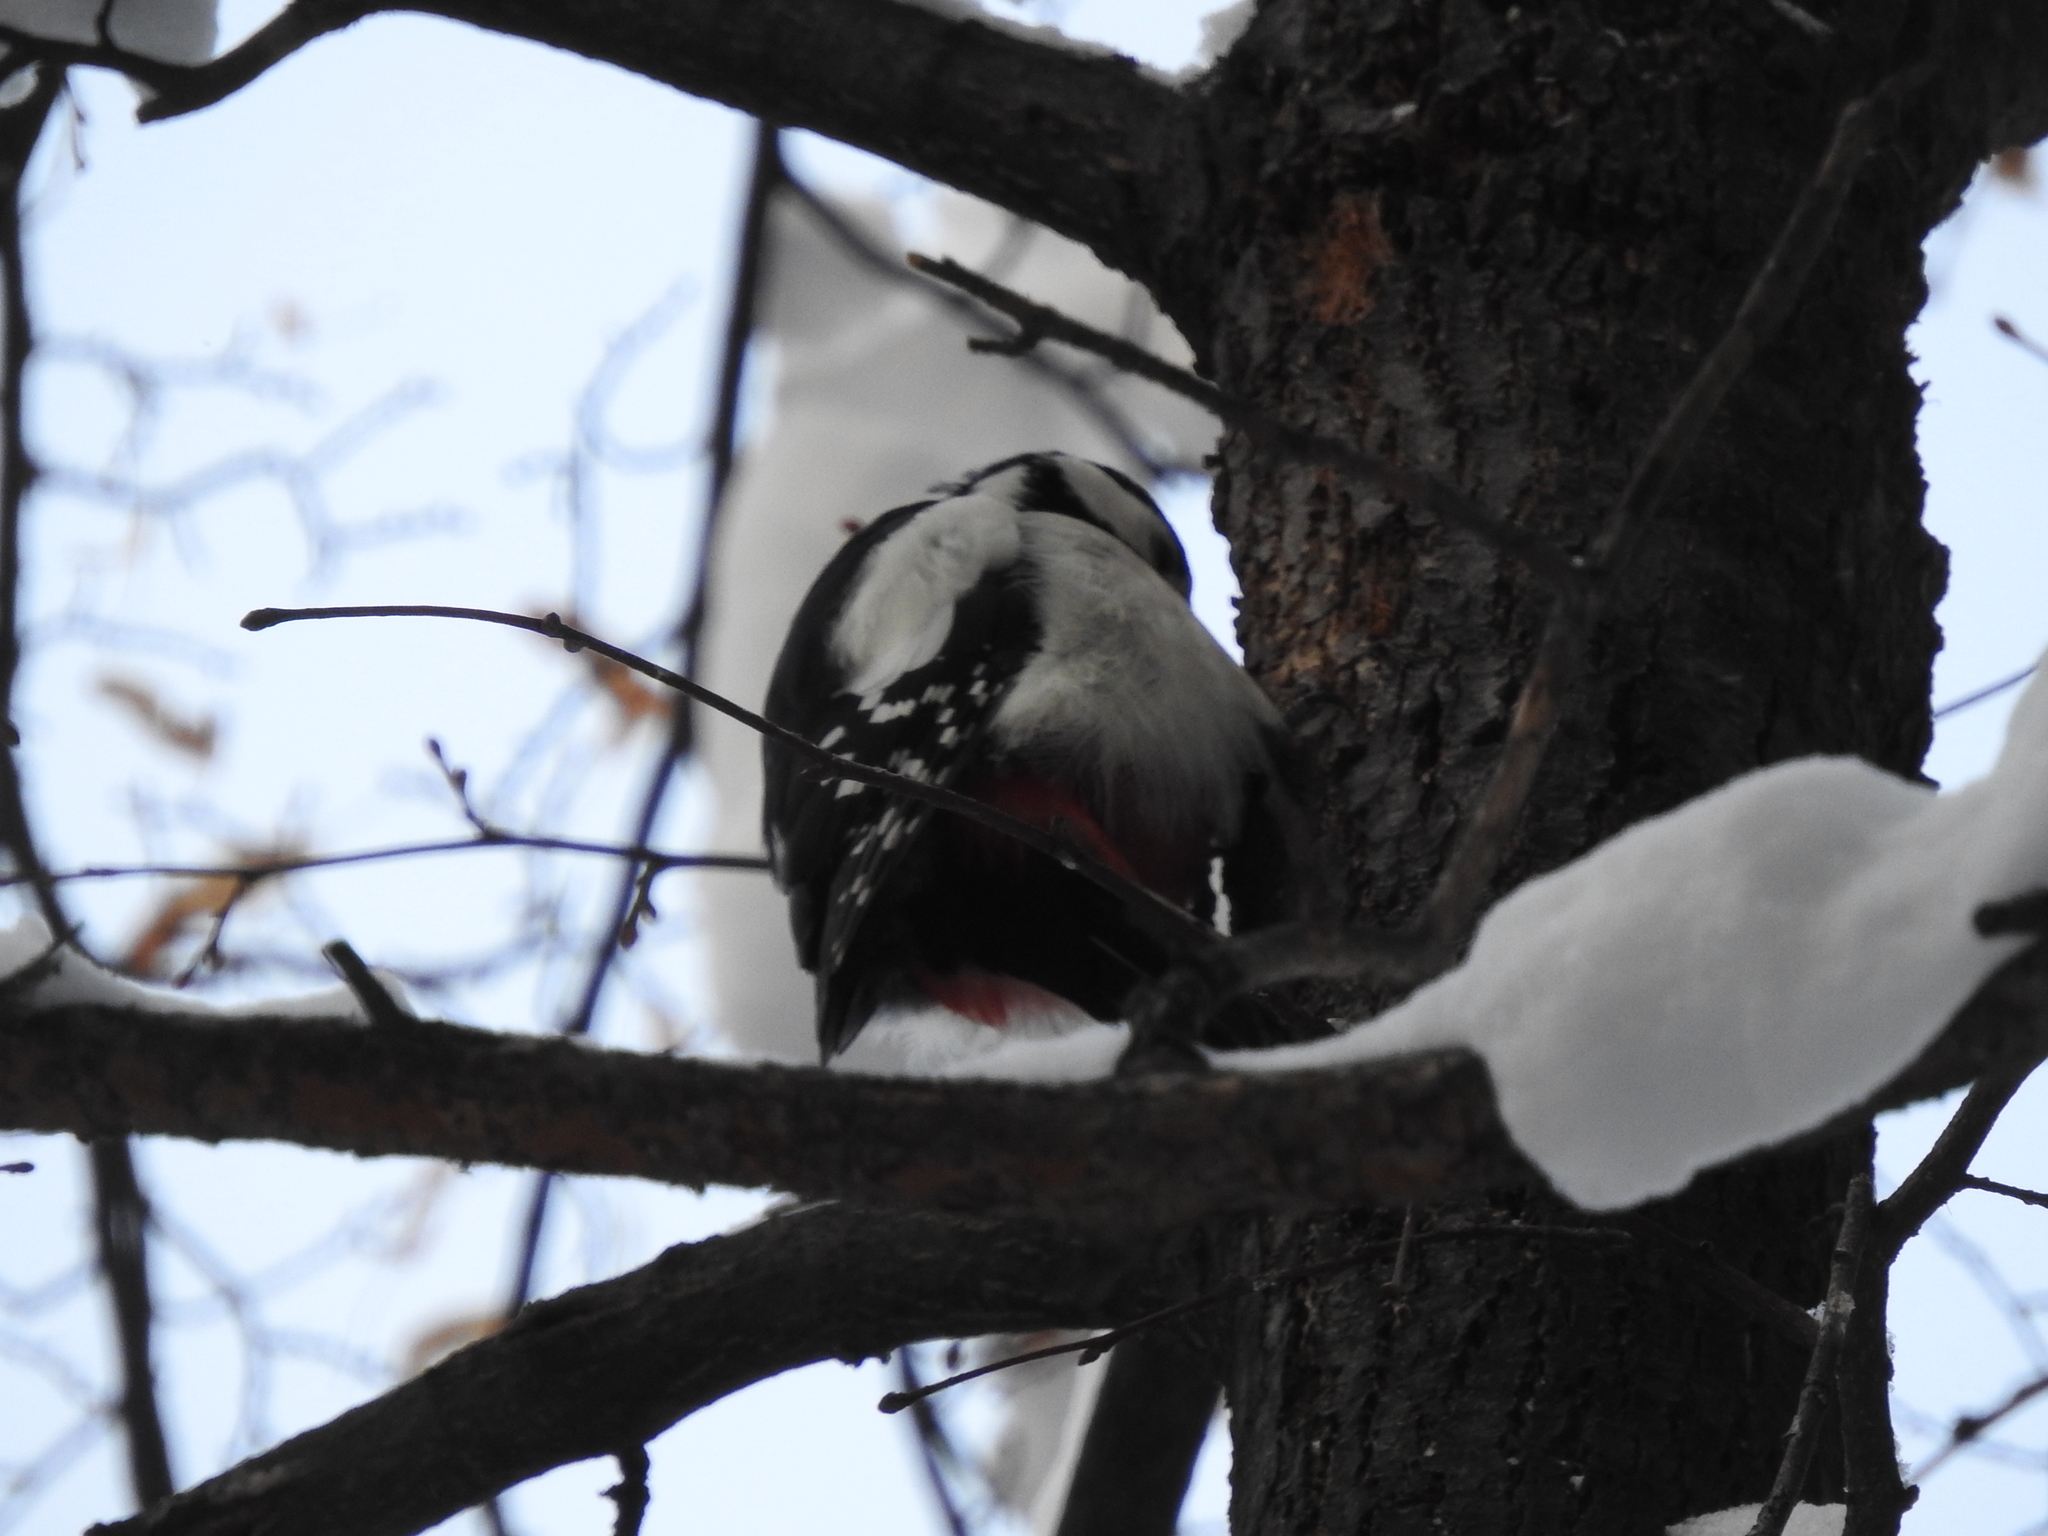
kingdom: Animalia
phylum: Chordata
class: Aves
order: Piciformes
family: Picidae
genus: Dendrocopos
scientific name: Dendrocopos major
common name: Great spotted woodpecker
